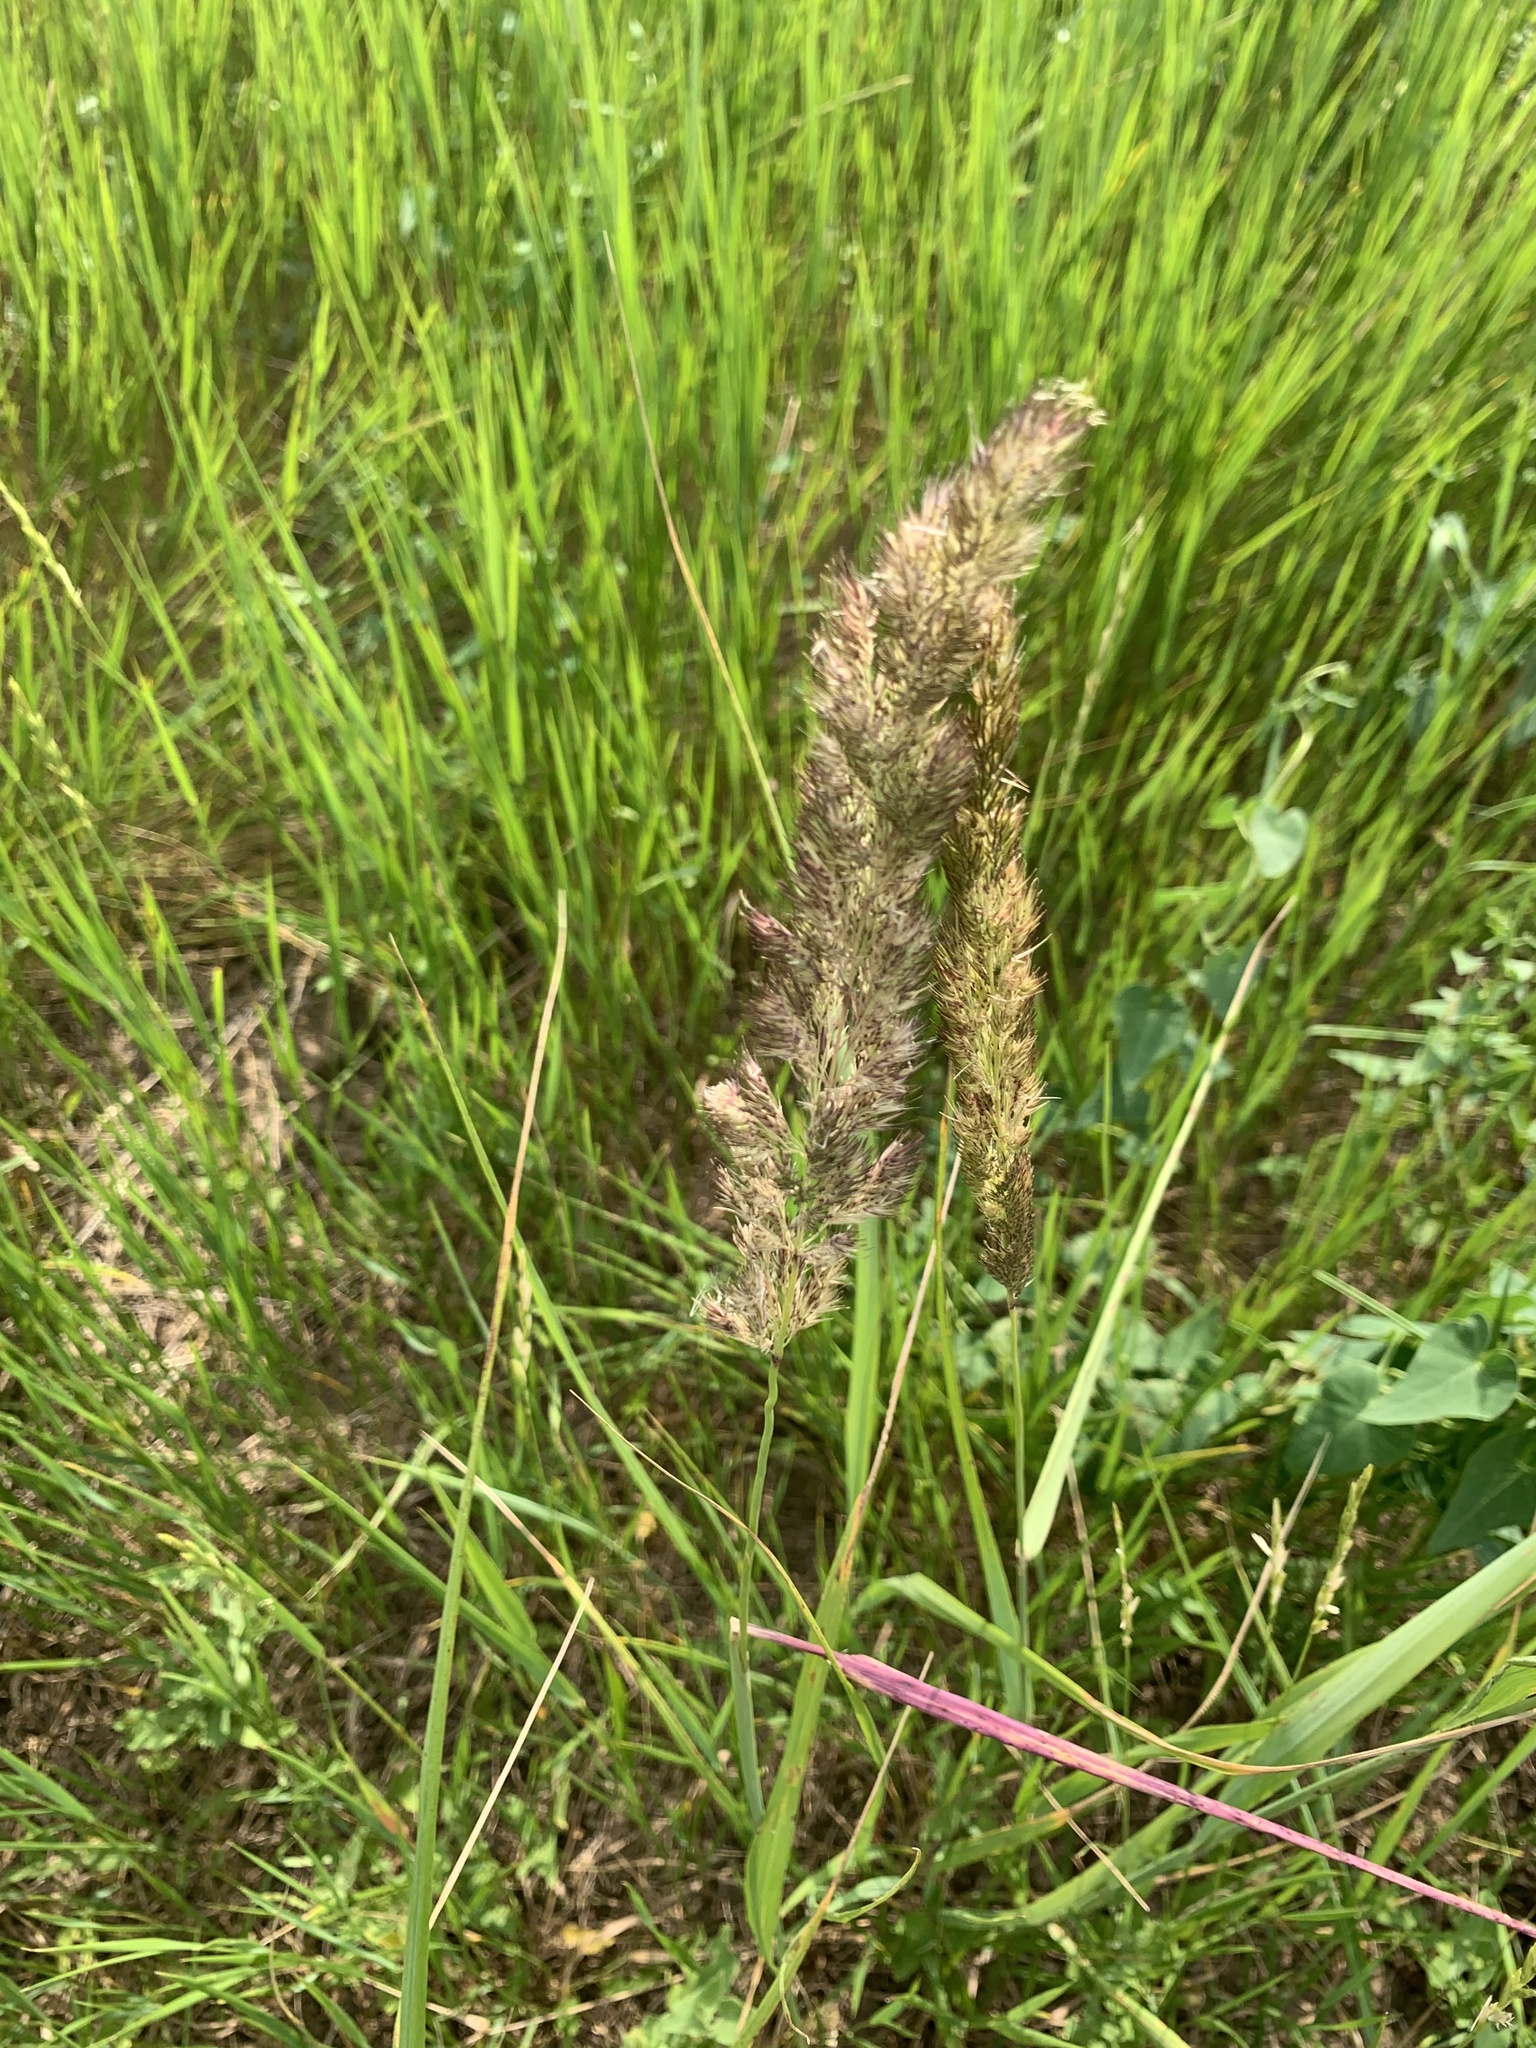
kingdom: Plantae
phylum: Tracheophyta
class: Liliopsida
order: Poales
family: Poaceae
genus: Calamagrostis
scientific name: Calamagrostis epigejos
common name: Wood small-reed
